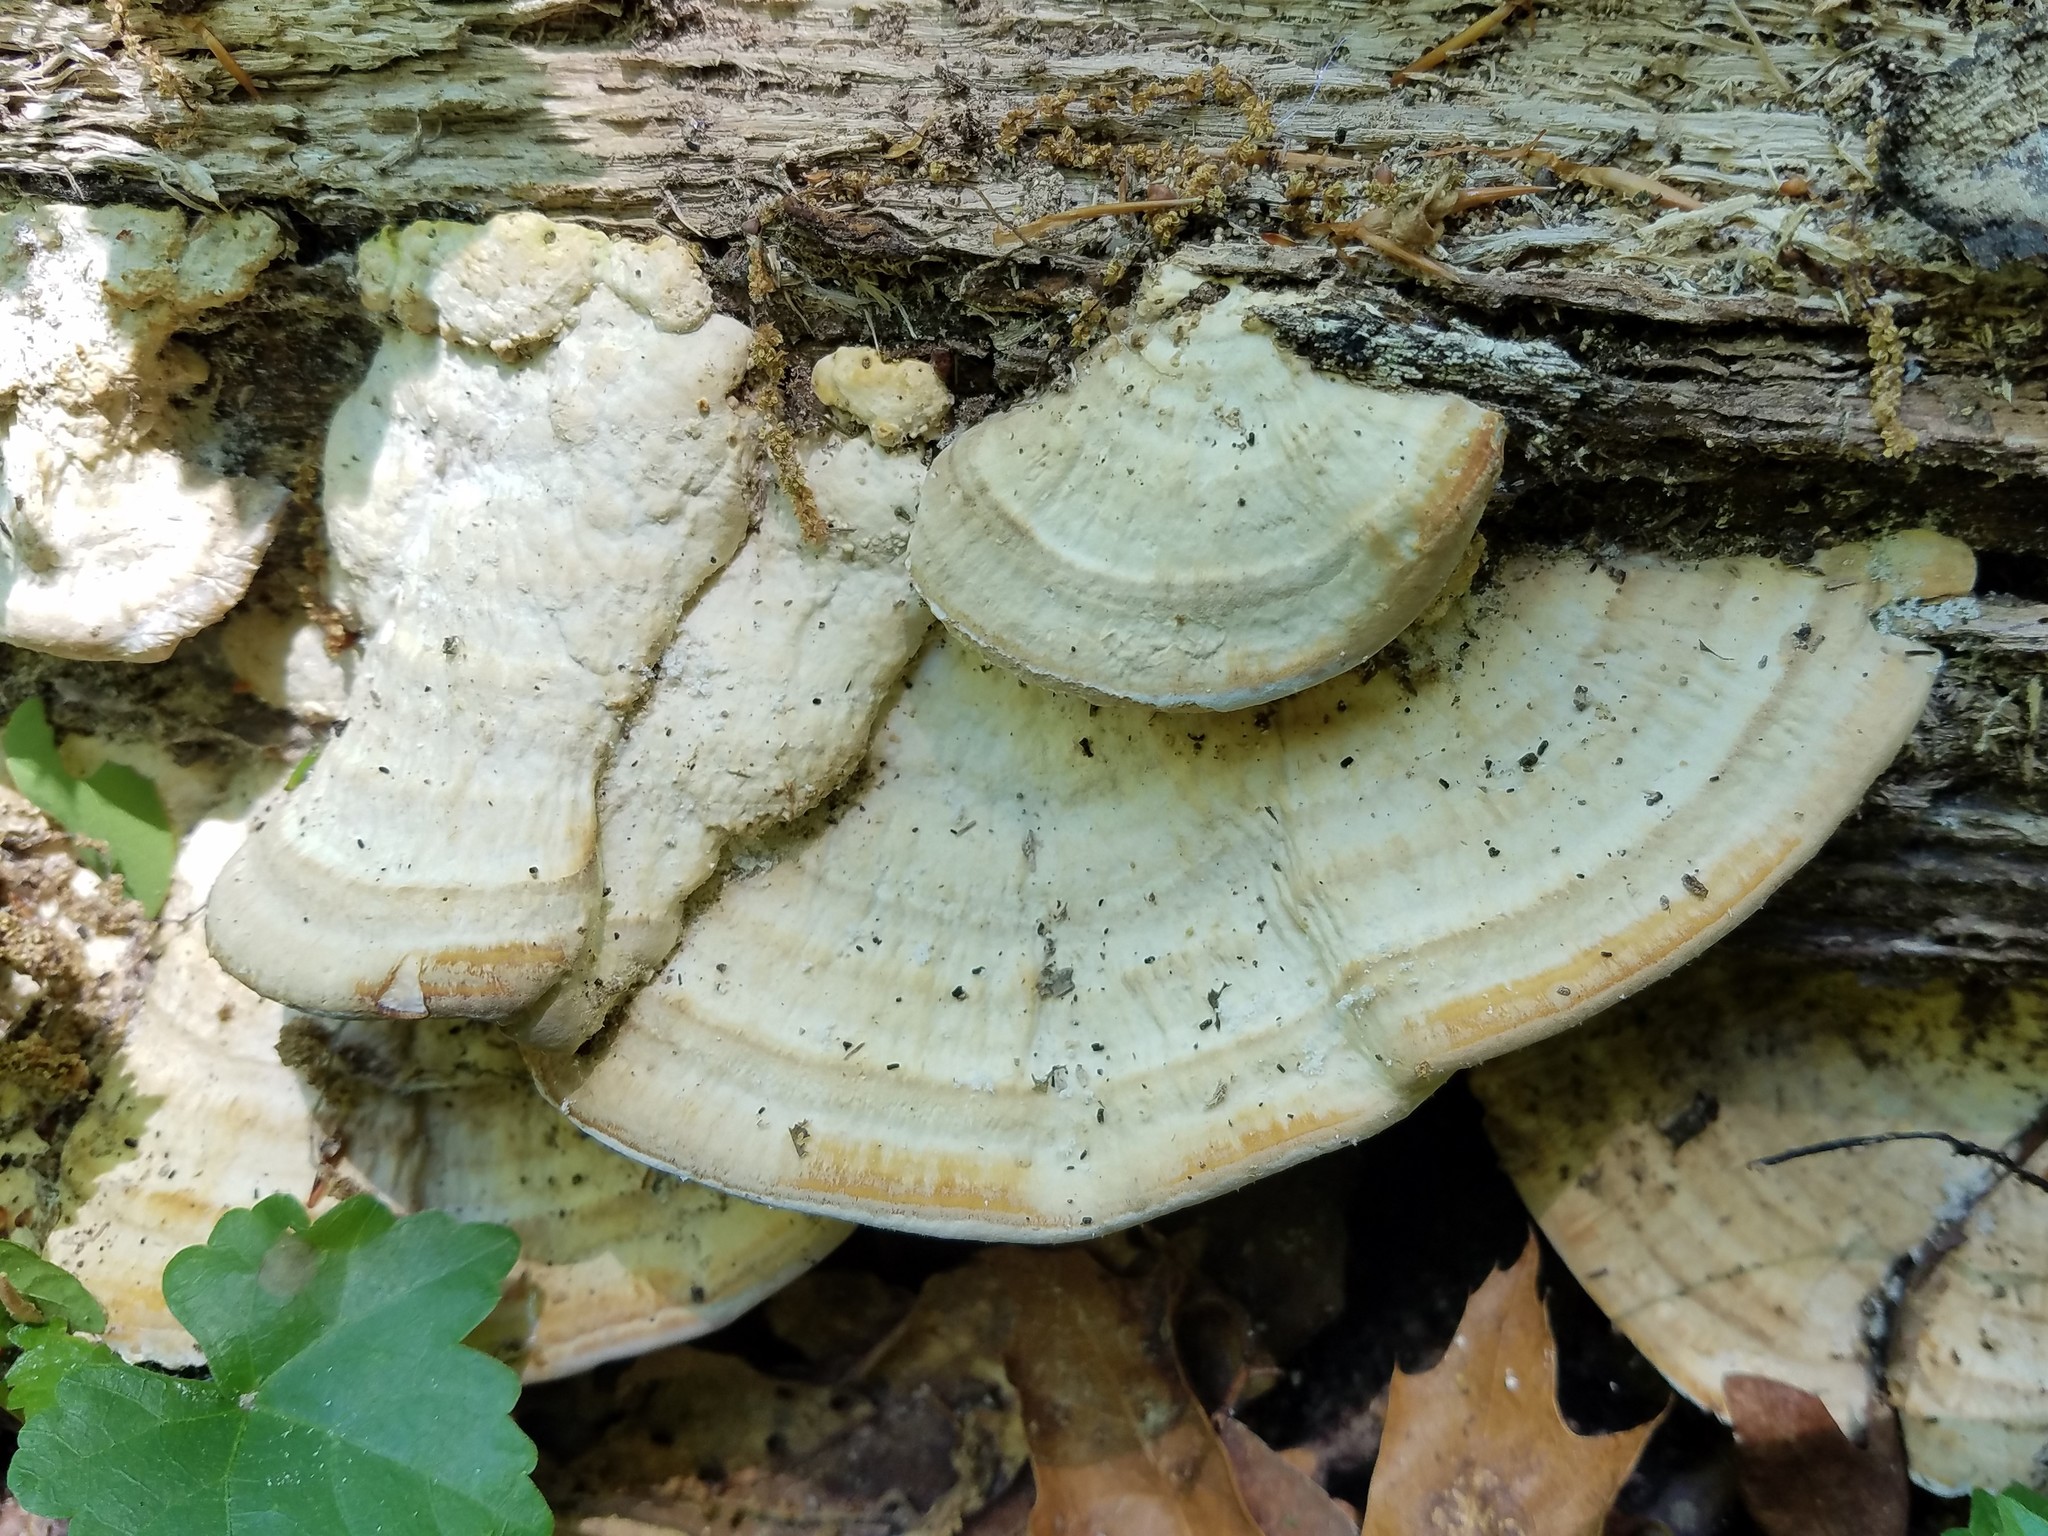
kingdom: Fungi
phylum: Basidiomycota
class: Agaricomycetes
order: Polyporales
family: Polyporaceae
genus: Trametes
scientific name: Trametes lactinea
